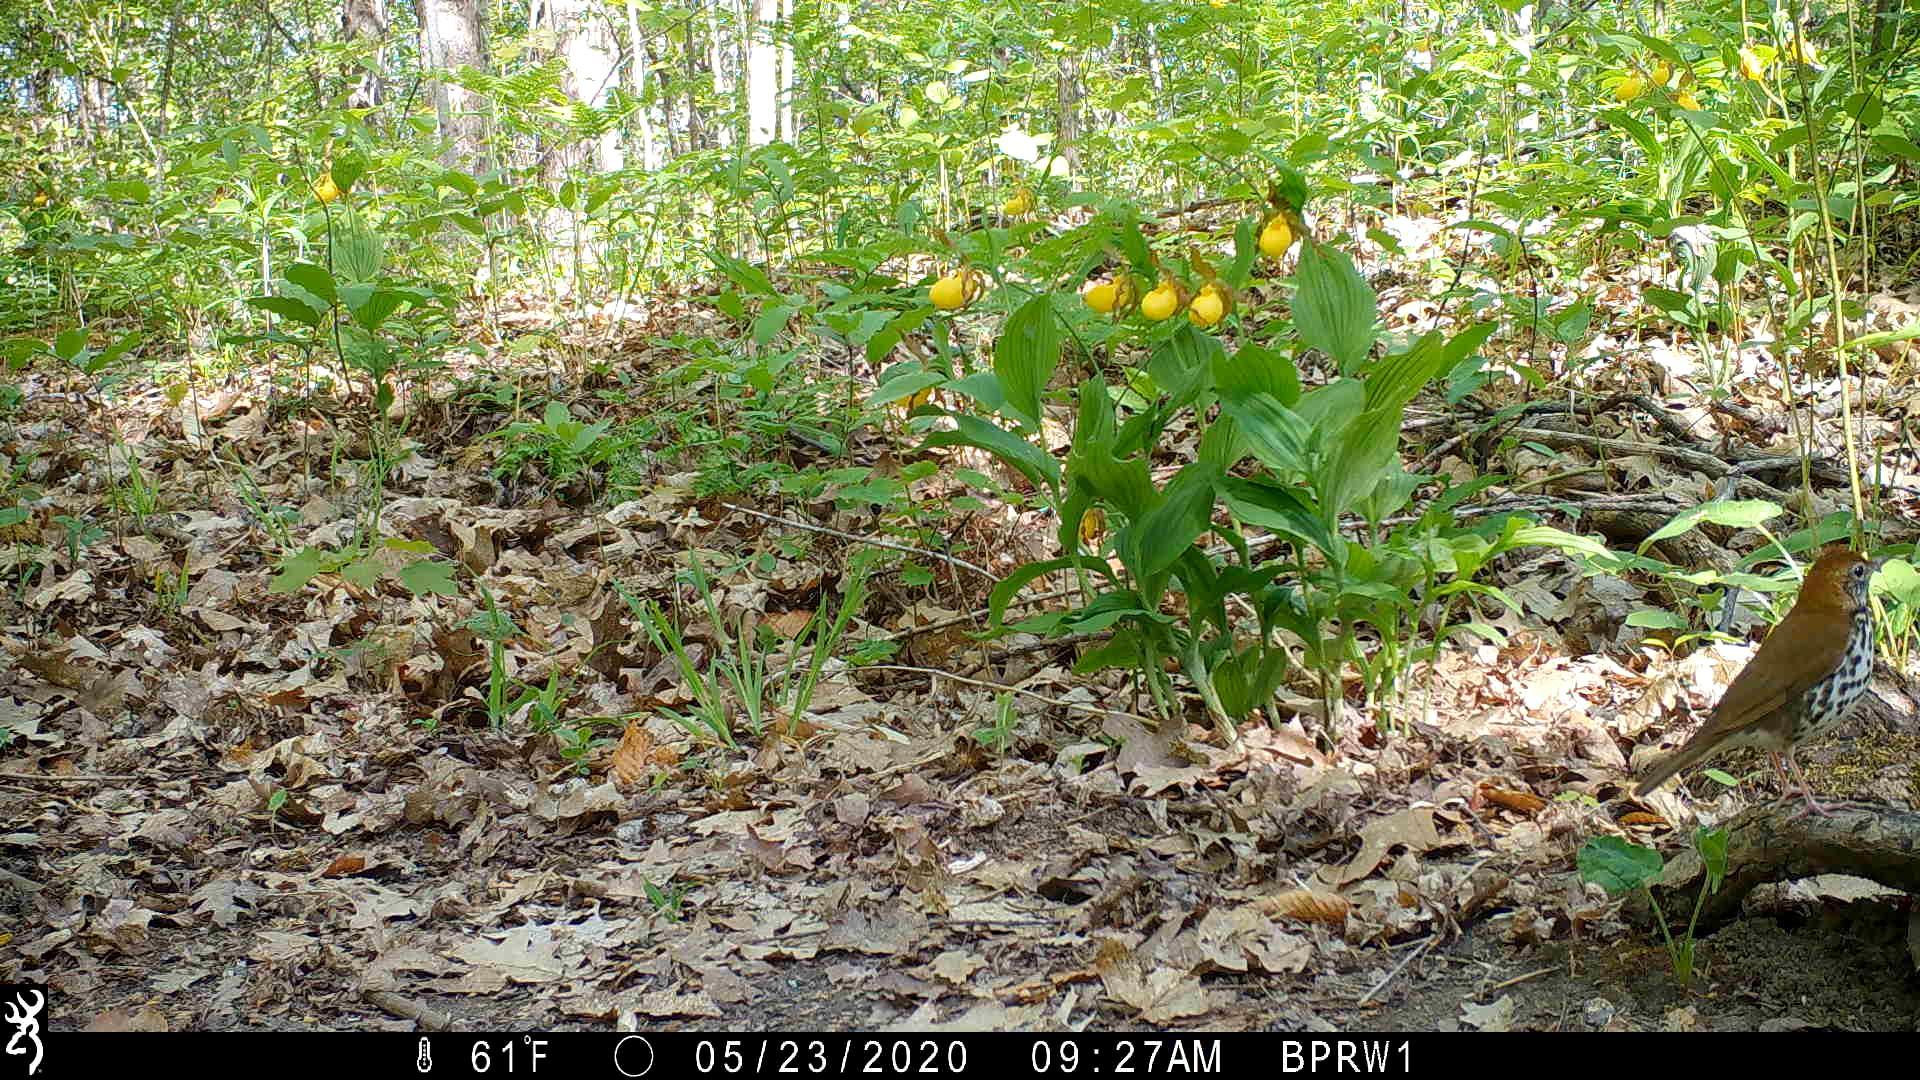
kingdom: Animalia
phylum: Chordata
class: Aves
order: Passeriformes
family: Turdidae
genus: Hylocichla
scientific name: Hylocichla mustelina
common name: Wood thrush
